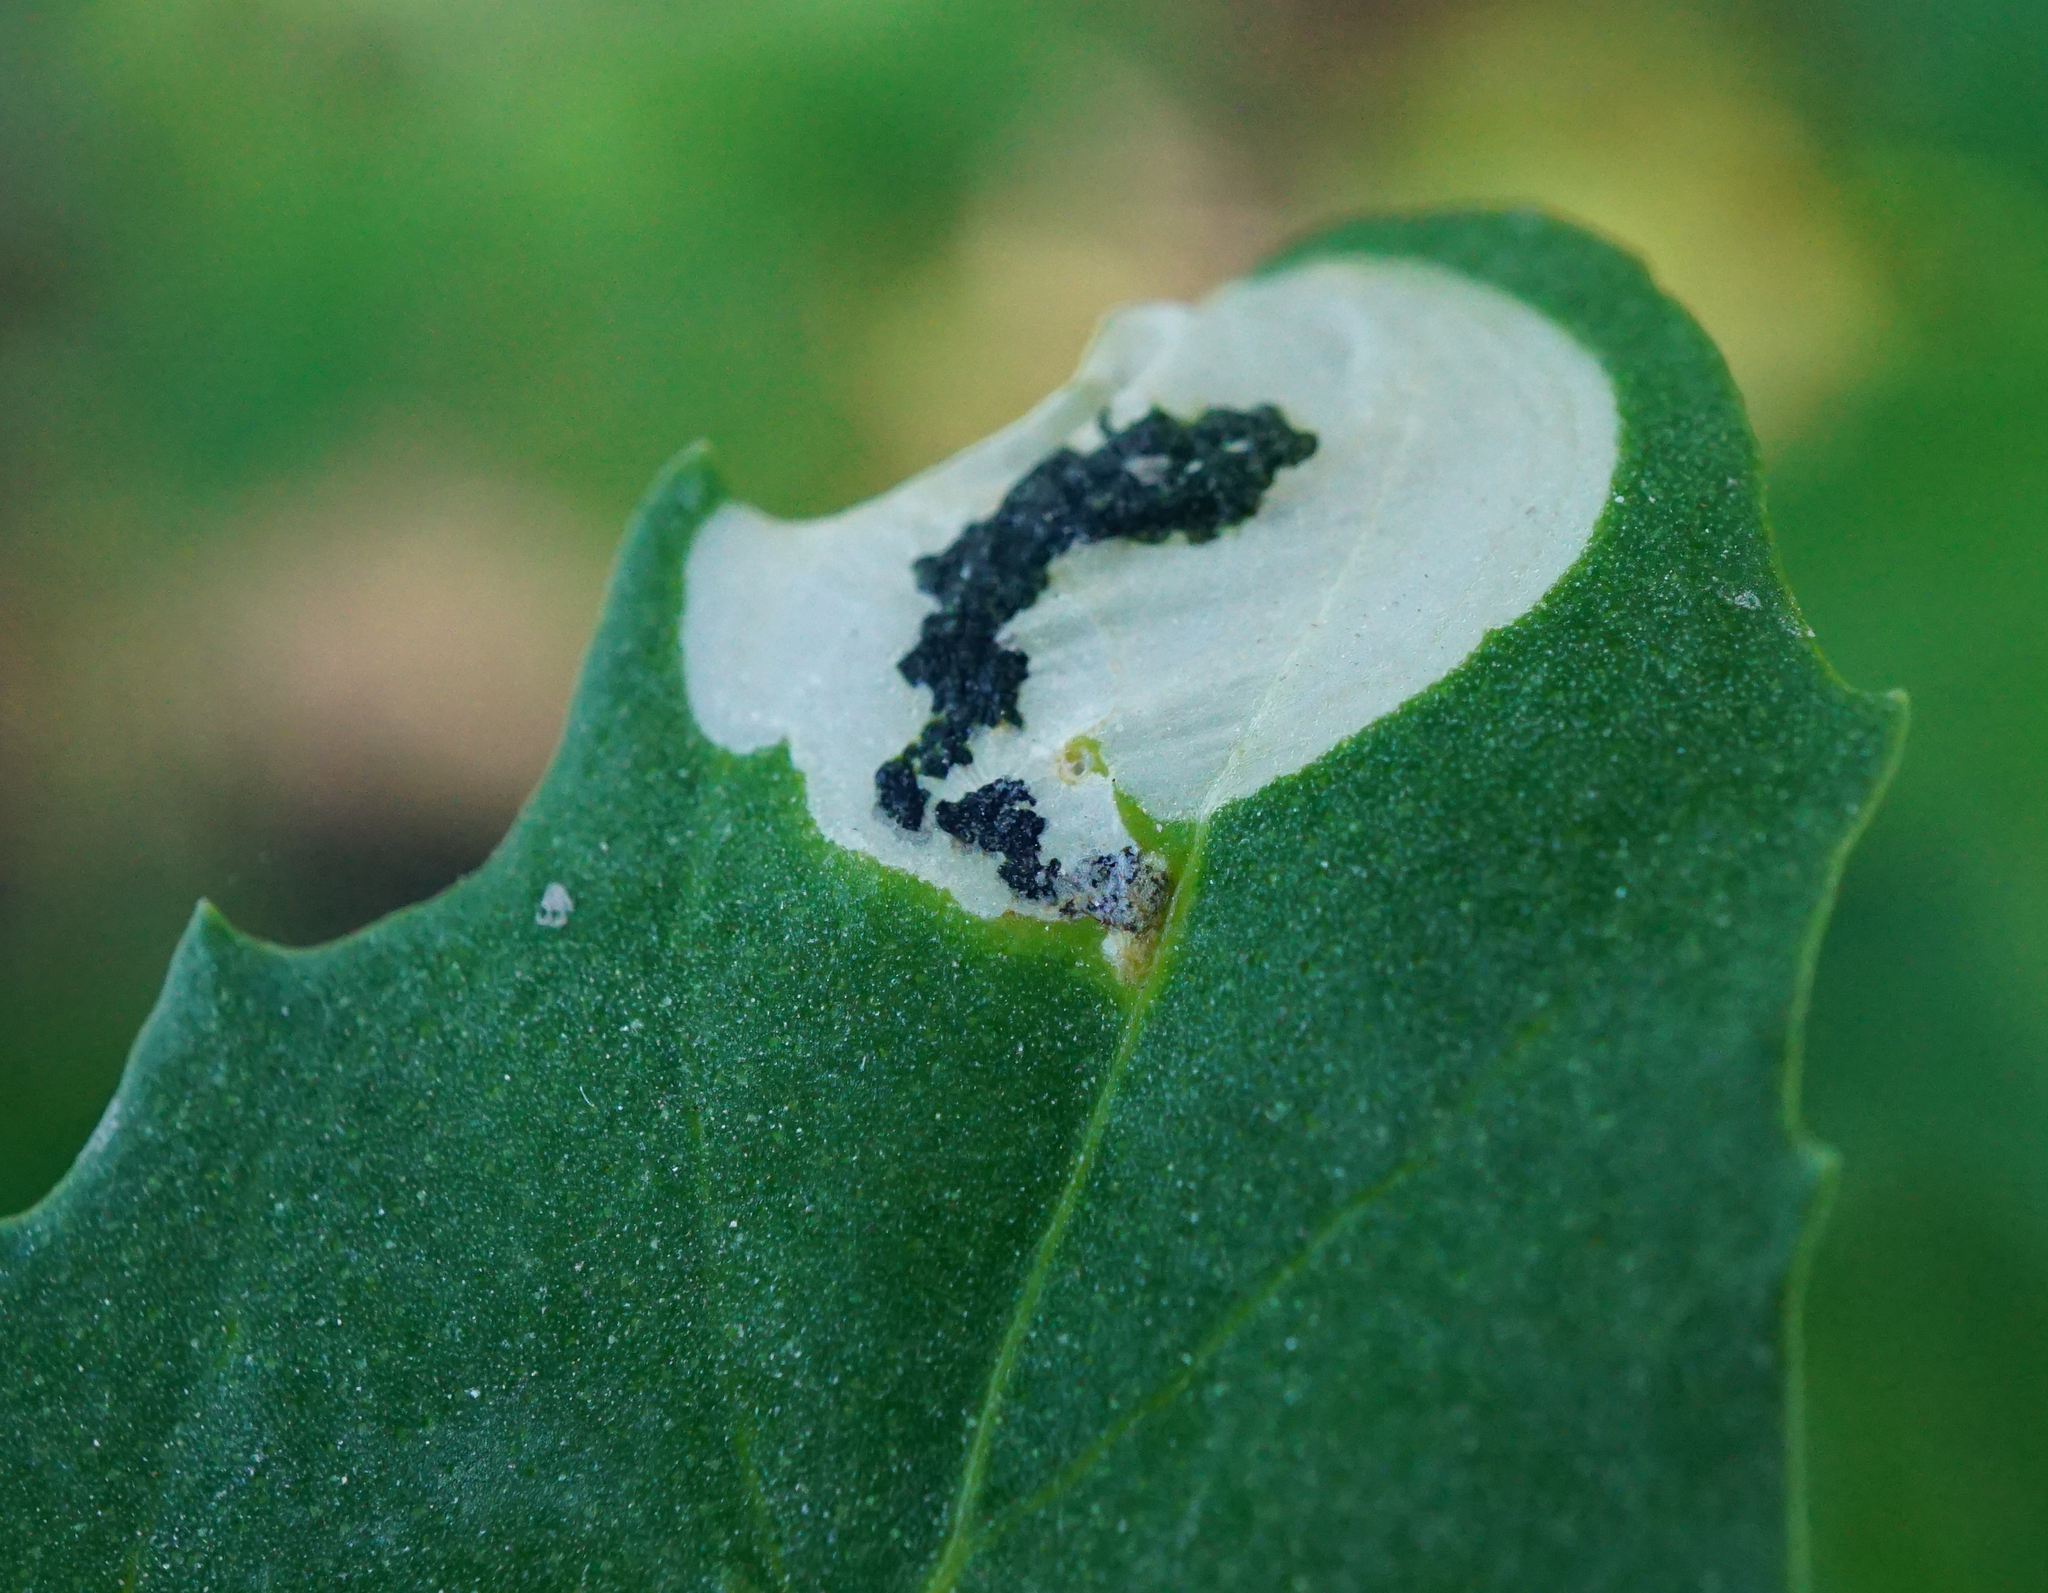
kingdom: Animalia
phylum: Arthropoda
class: Insecta
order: Lepidoptera
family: Gelechiidae
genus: Chrysoesthia
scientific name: Chrysoesthia sexguttella
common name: Moth
